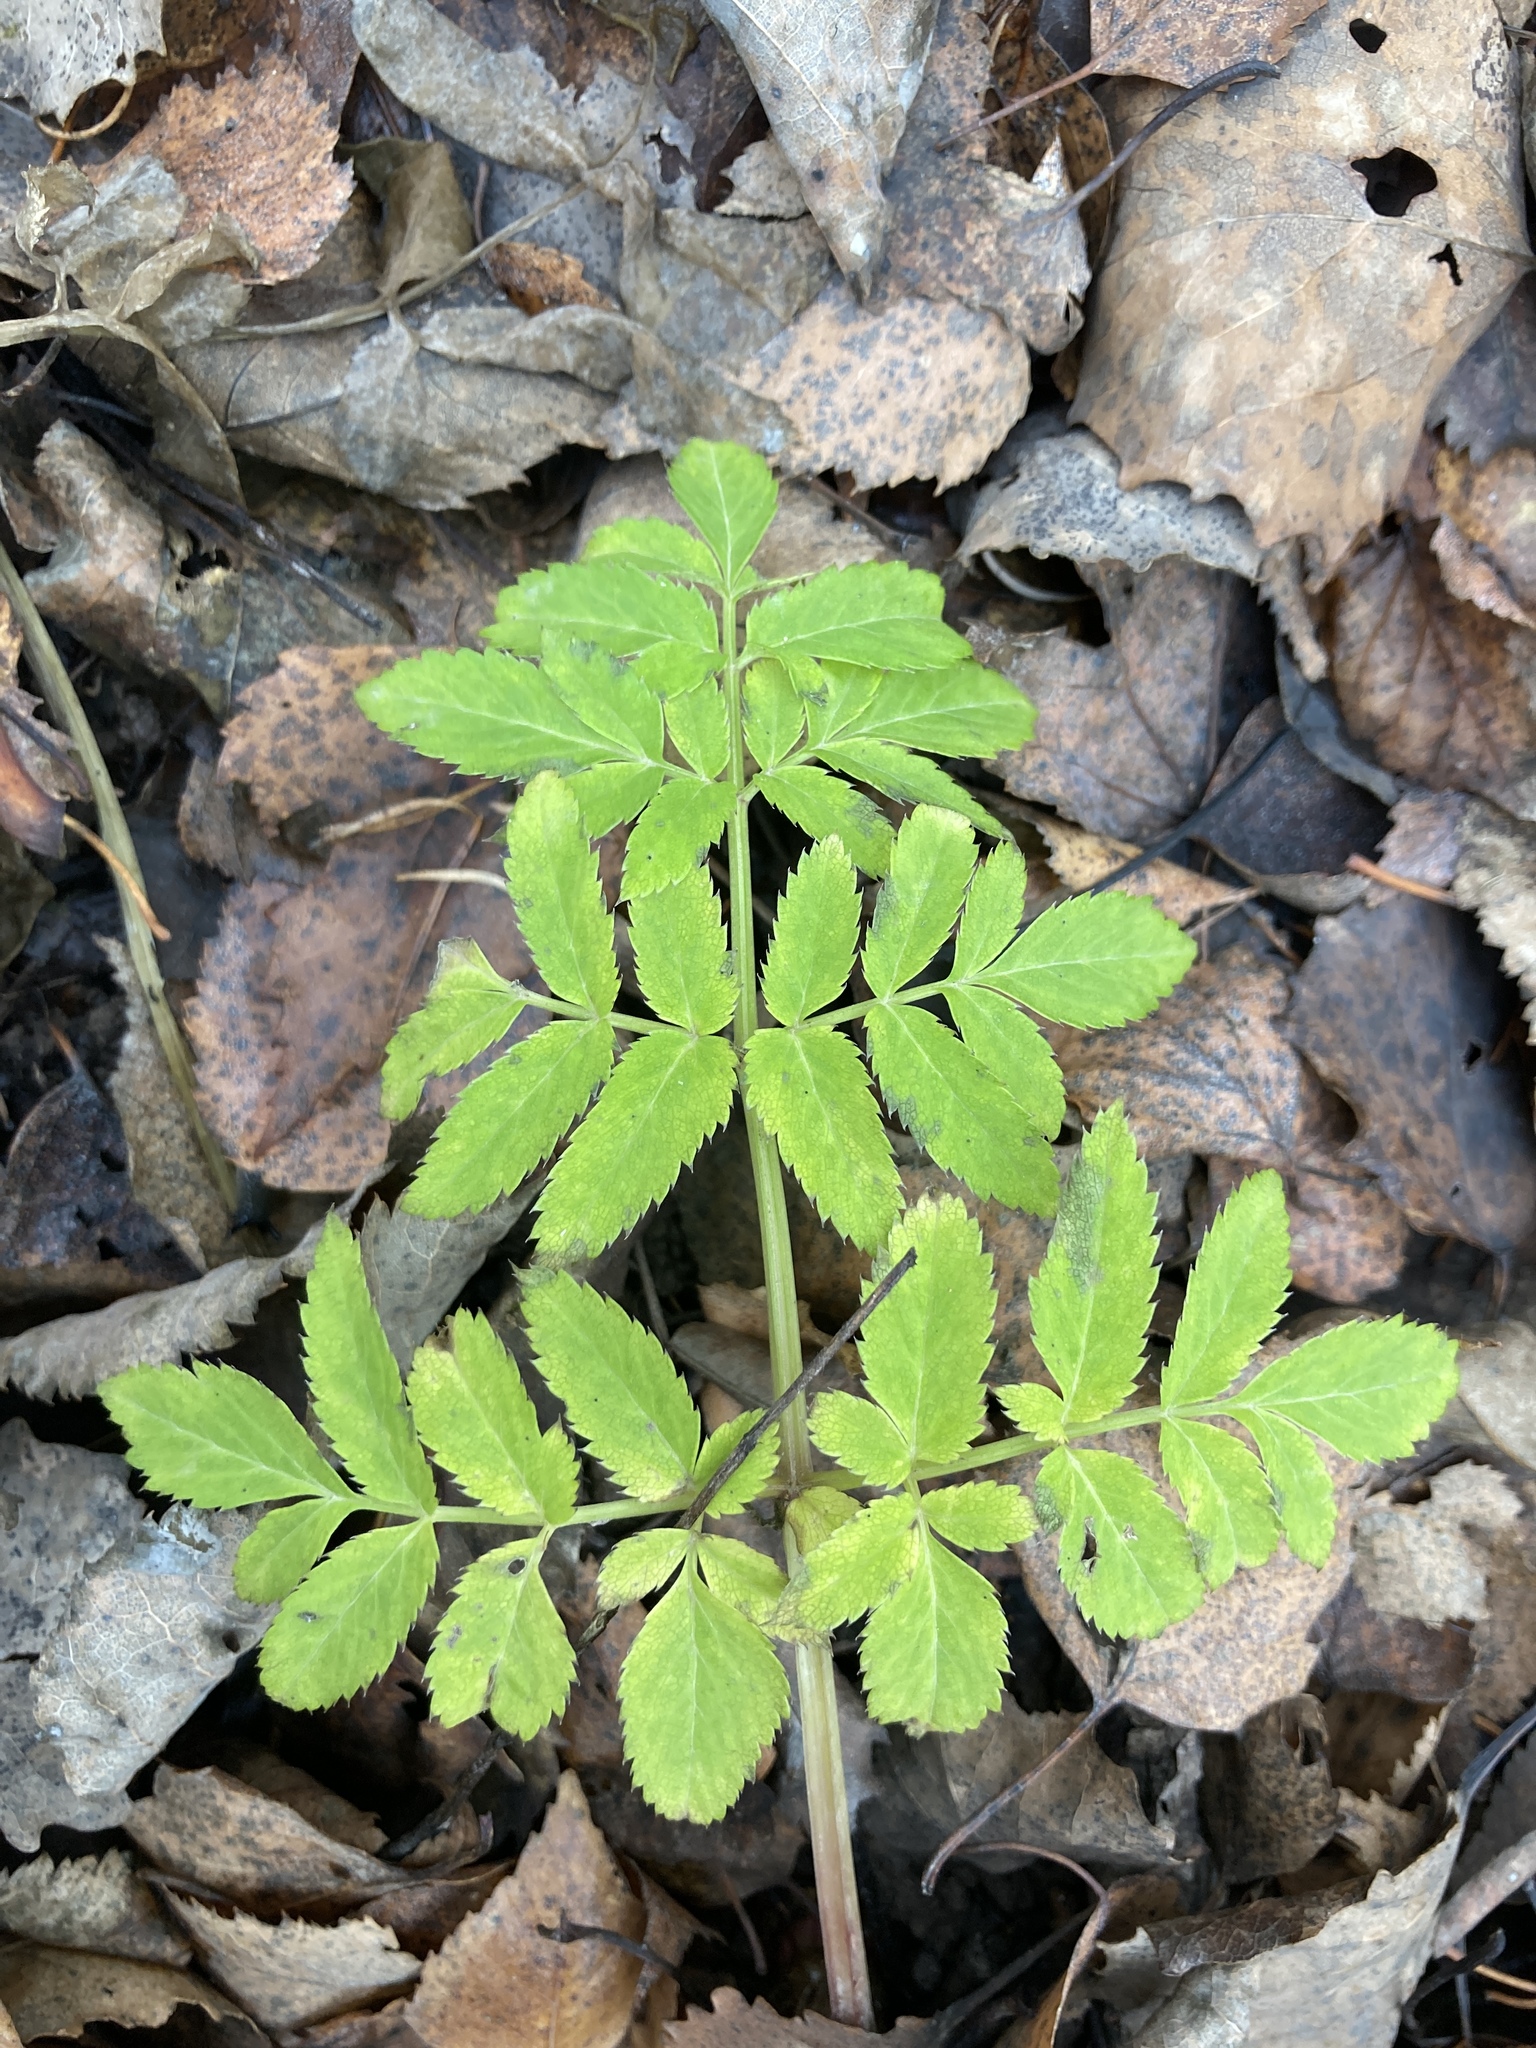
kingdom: Plantae
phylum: Tracheophyta
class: Magnoliopsida
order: Apiales
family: Apiaceae
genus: Angelica
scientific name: Angelica sylvestris
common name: Wild angelica
